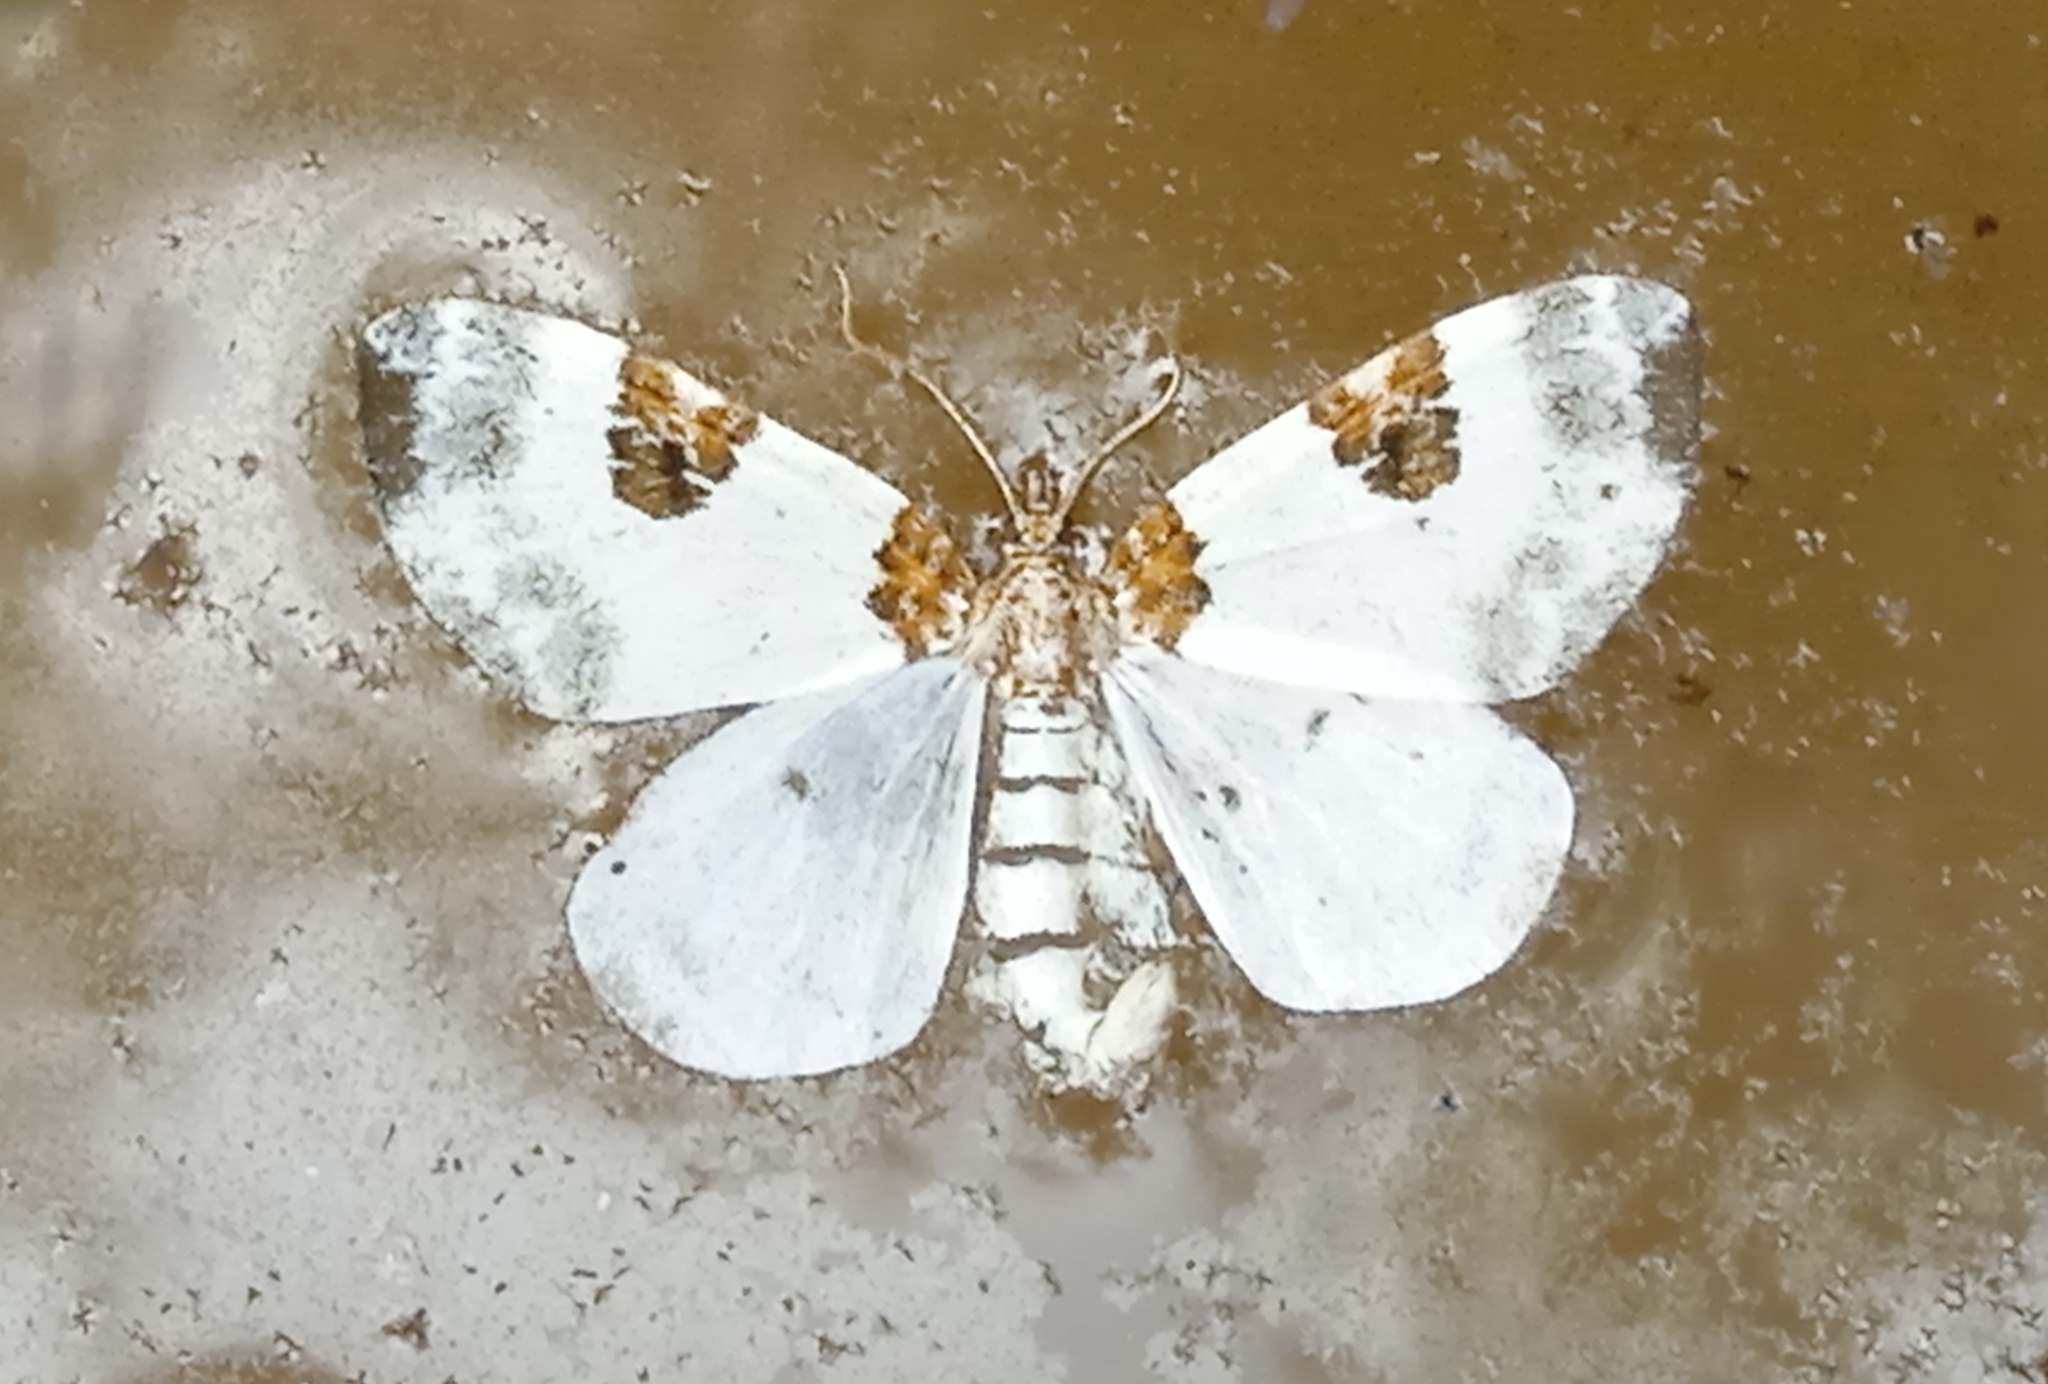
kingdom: Animalia
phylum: Arthropoda
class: Insecta
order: Lepidoptera
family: Geometridae
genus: Plemyria
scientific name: Plemyria rubiginata
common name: Blue-bordered carpet
